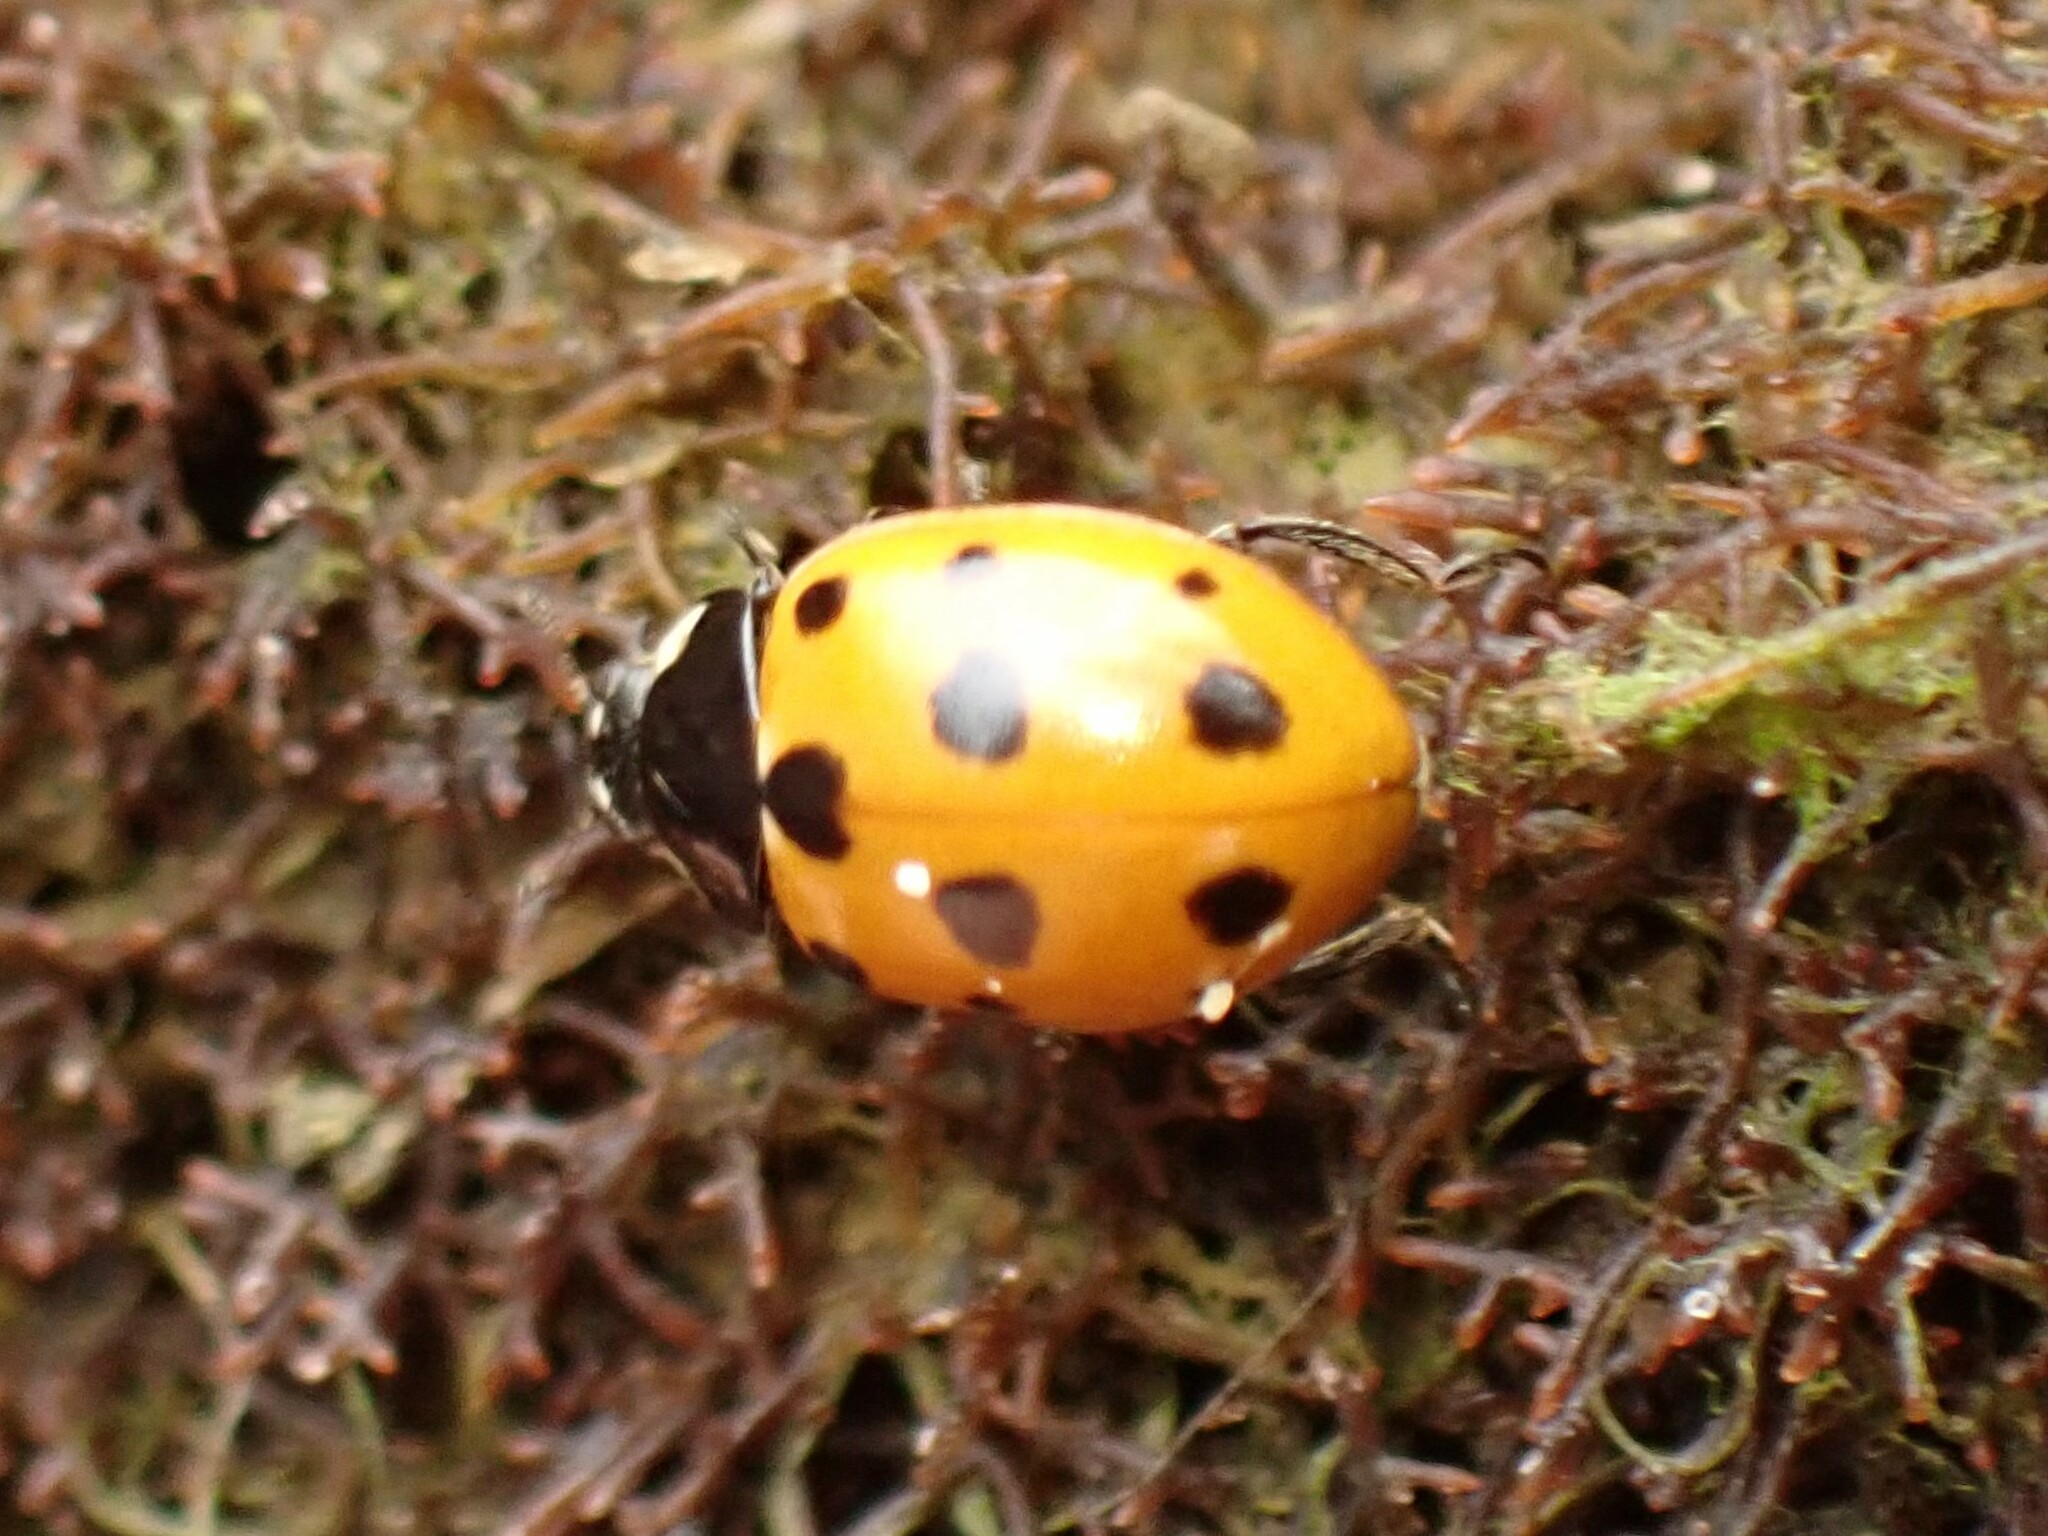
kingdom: Animalia
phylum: Arthropoda
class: Insecta
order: Coleoptera
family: Coccinellidae
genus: Coccinella
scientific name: Coccinella undecimpunctata
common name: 11-spot ladybird
